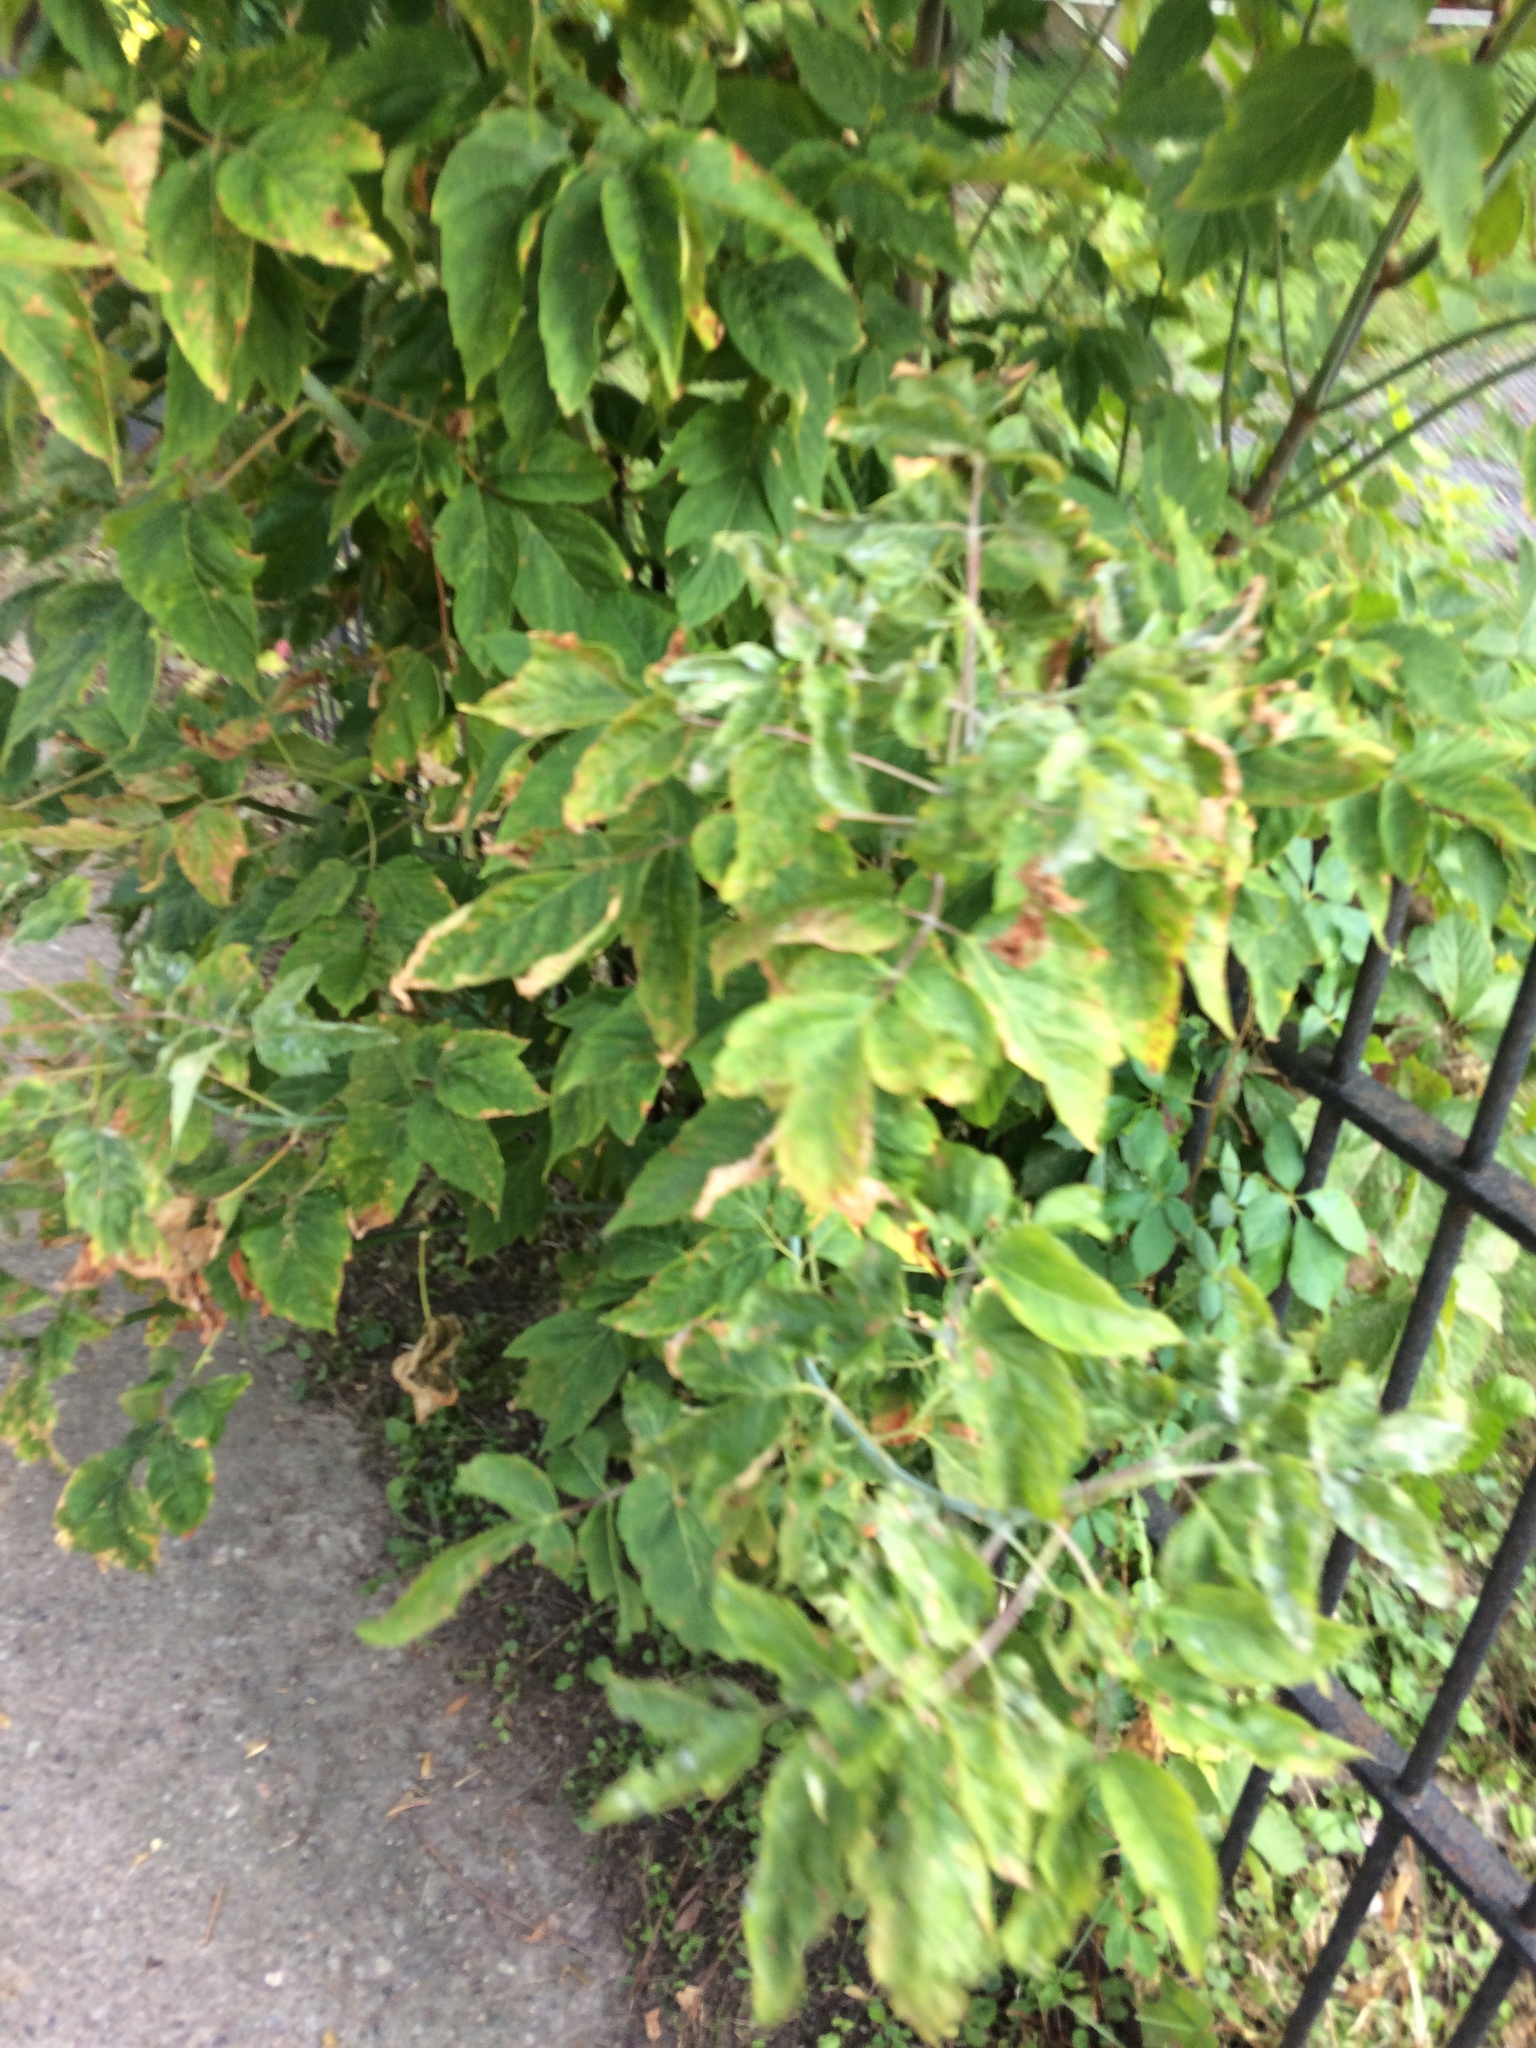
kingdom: Plantae
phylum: Tracheophyta
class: Magnoliopsida
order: Sapindales
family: Sapindaceae
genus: Acer
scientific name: Acer negundo
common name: Ashleaf maple
